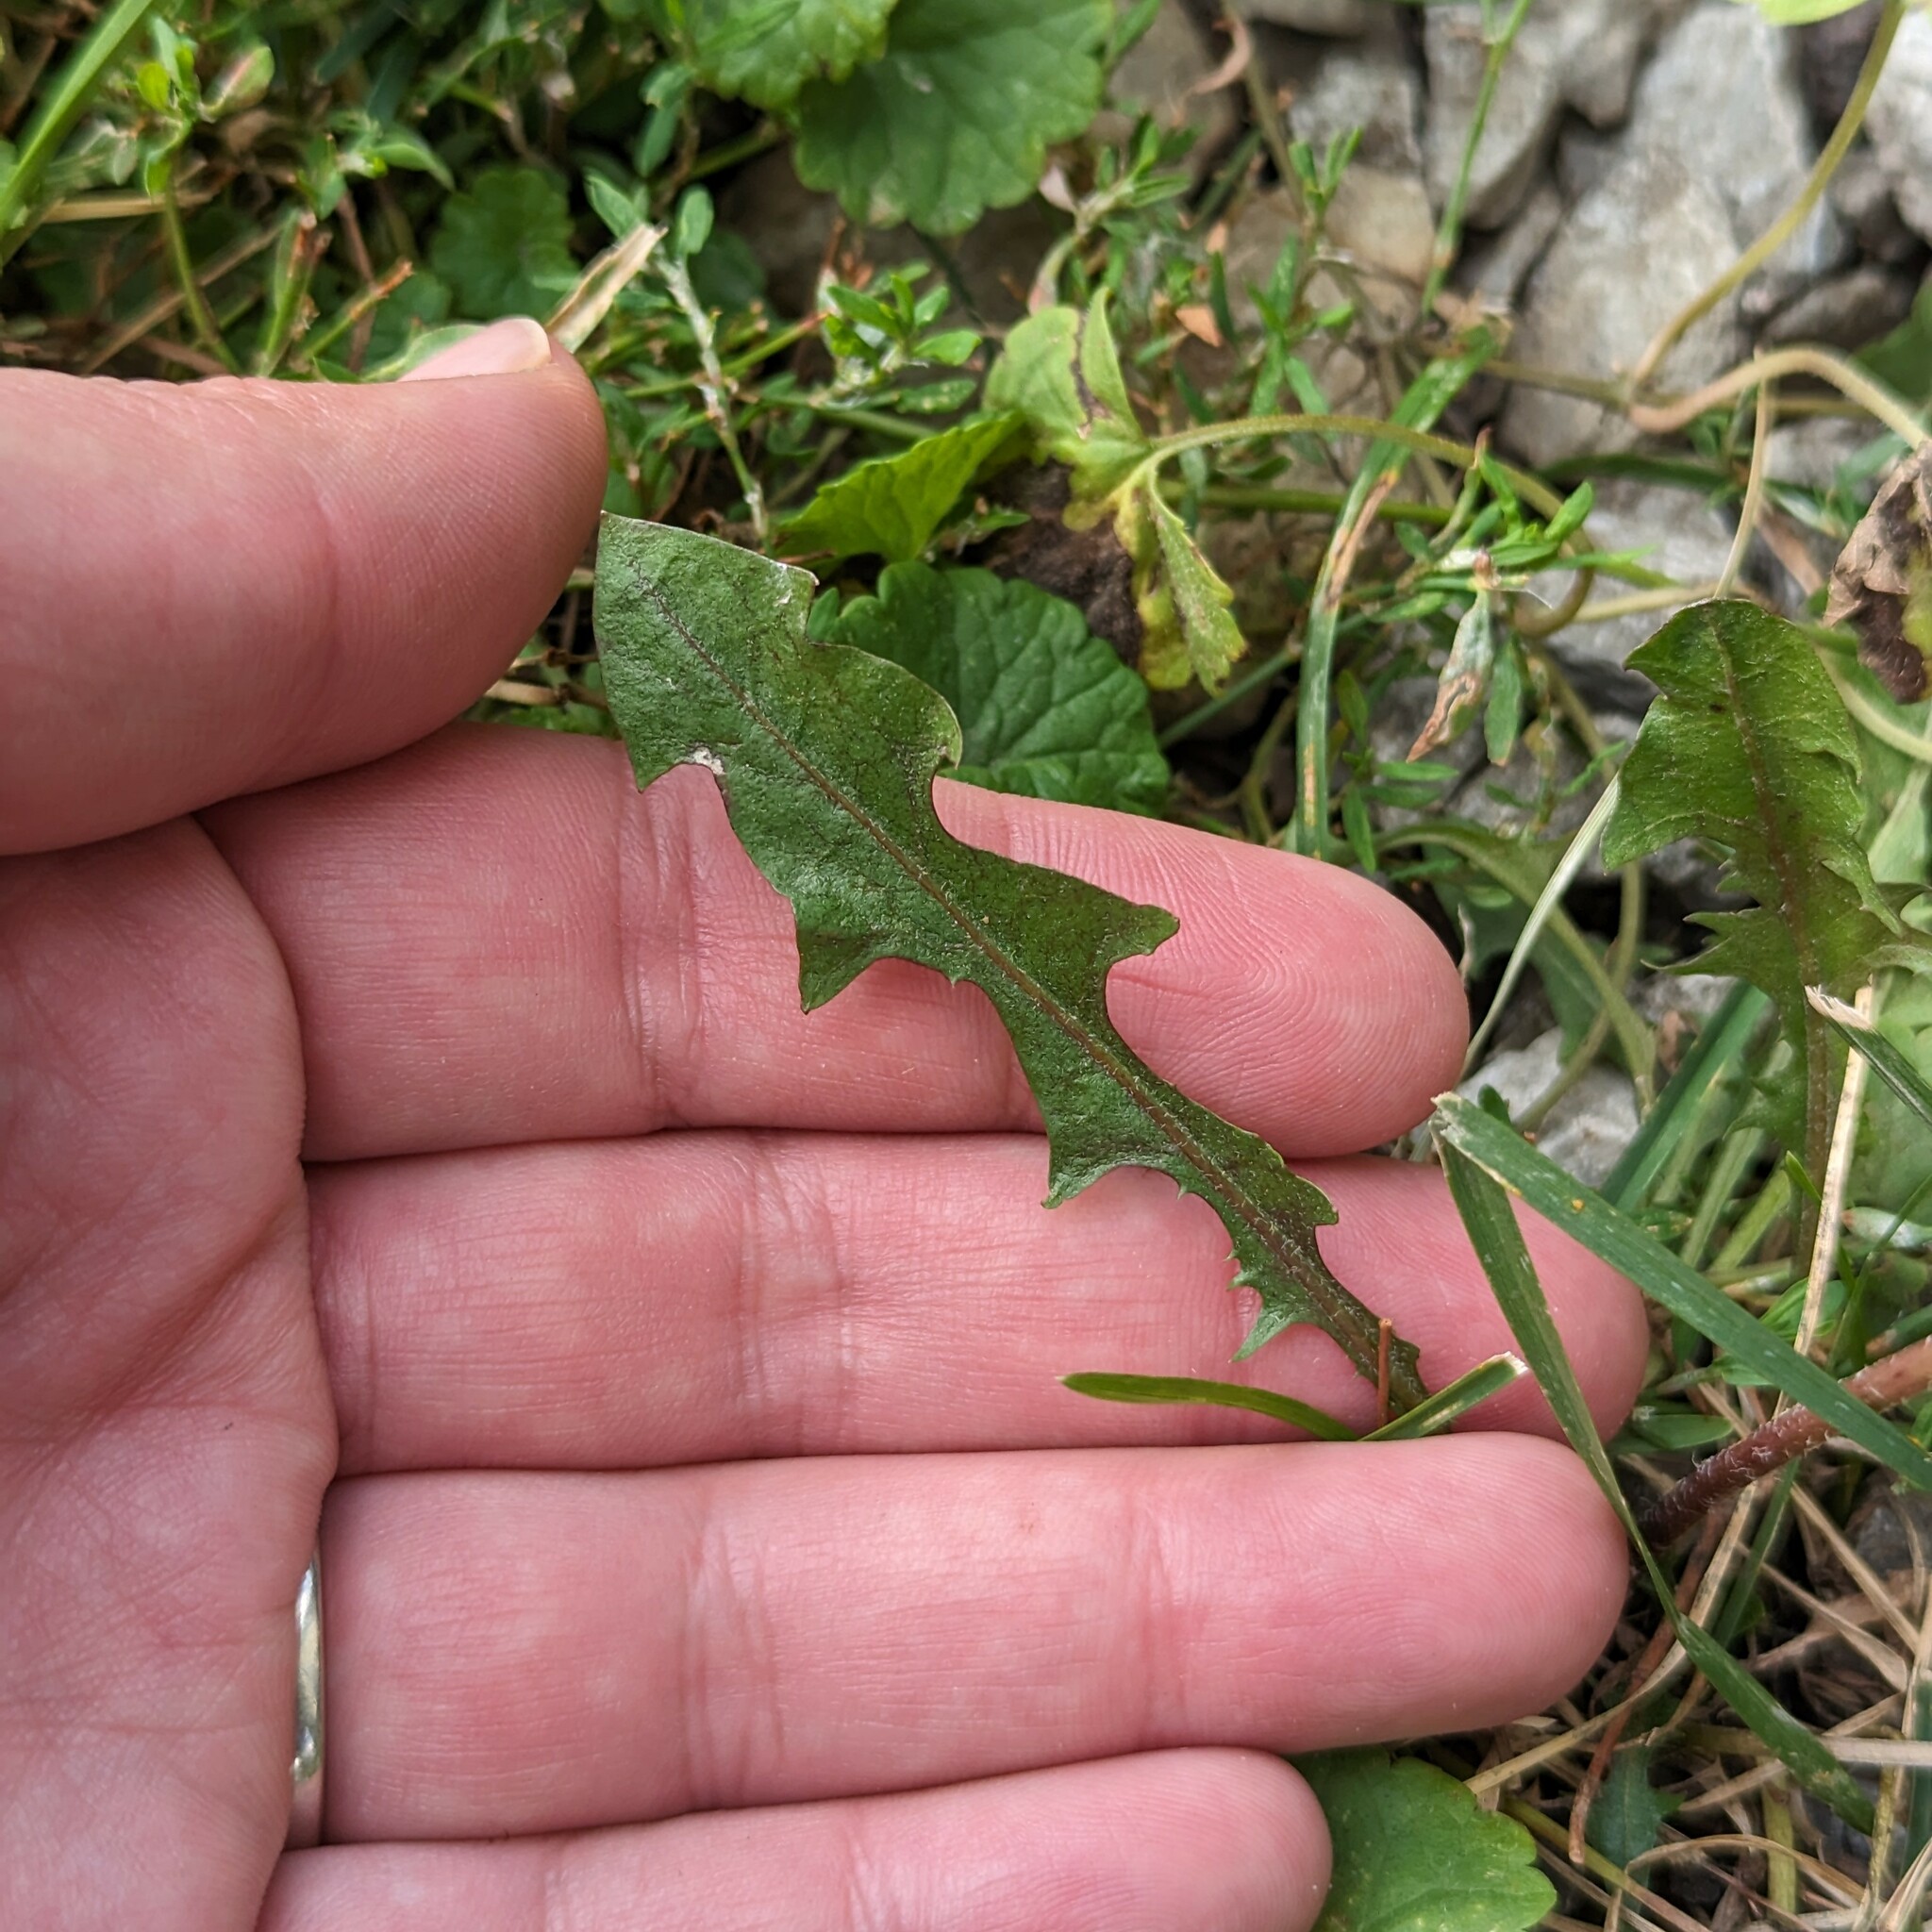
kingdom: Plantae
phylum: Tracheophyta
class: Magnoliopsida
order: Asterales
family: Asteraceae
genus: Taraxacum
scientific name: Taraxacum officinale
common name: Common dandelion
